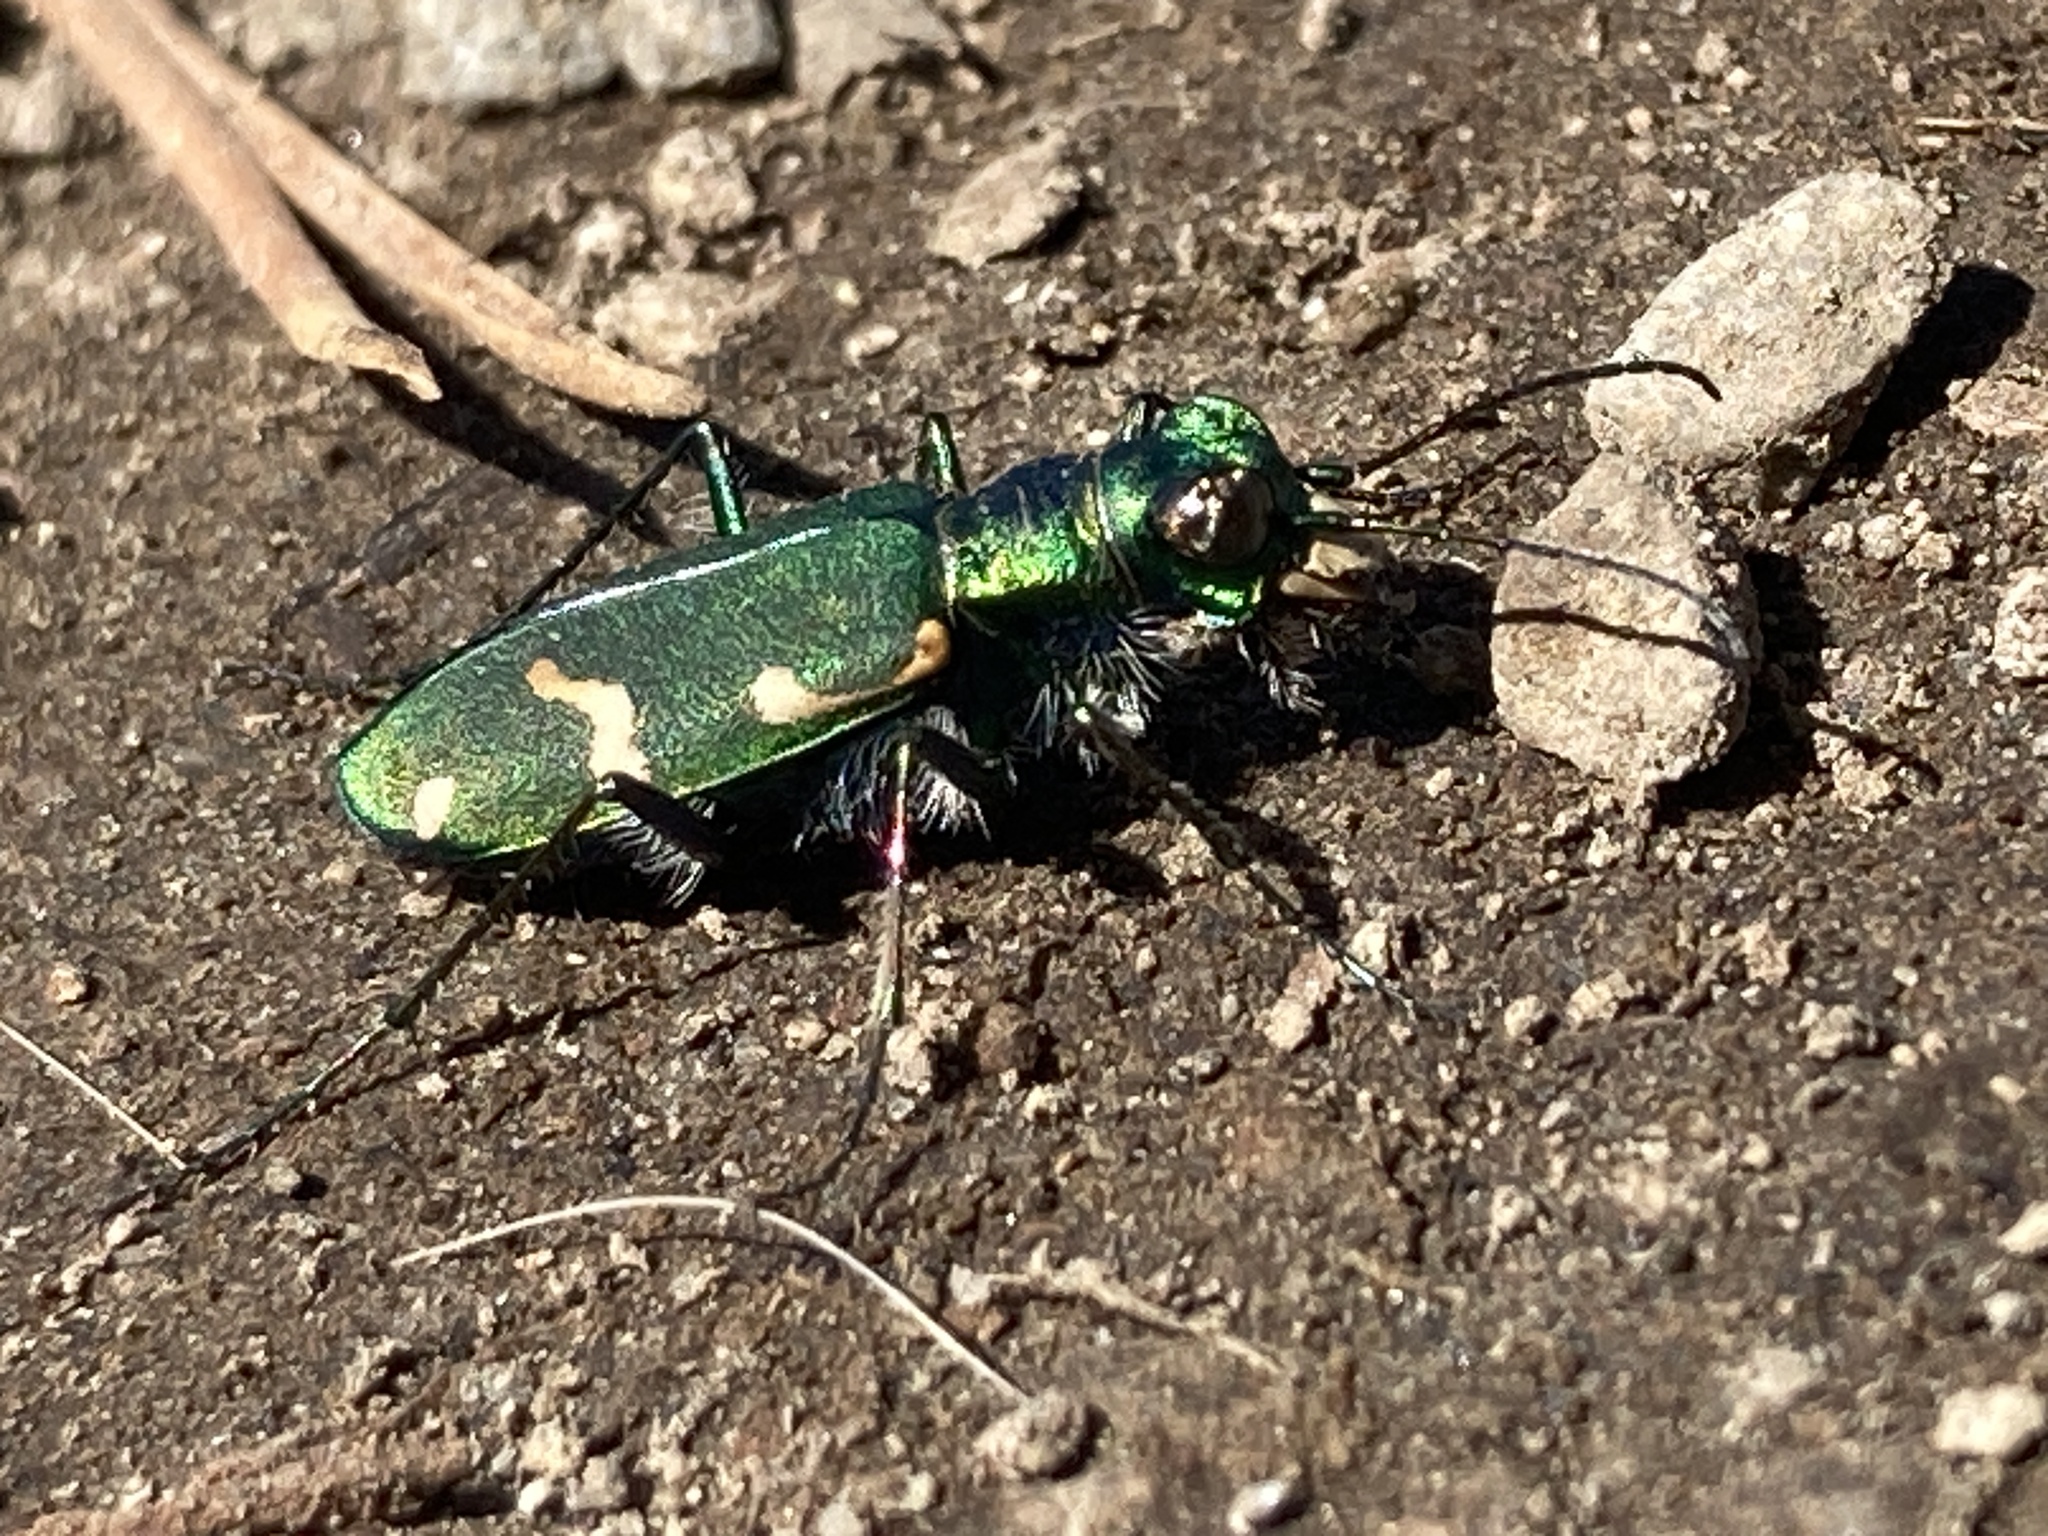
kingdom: Animalia
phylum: Arthropoda
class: Insecta
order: Coleoptera
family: Carabidae
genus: Cicindela
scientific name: Cicindela longilabris
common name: Boreal long-lipped tiger beetle
